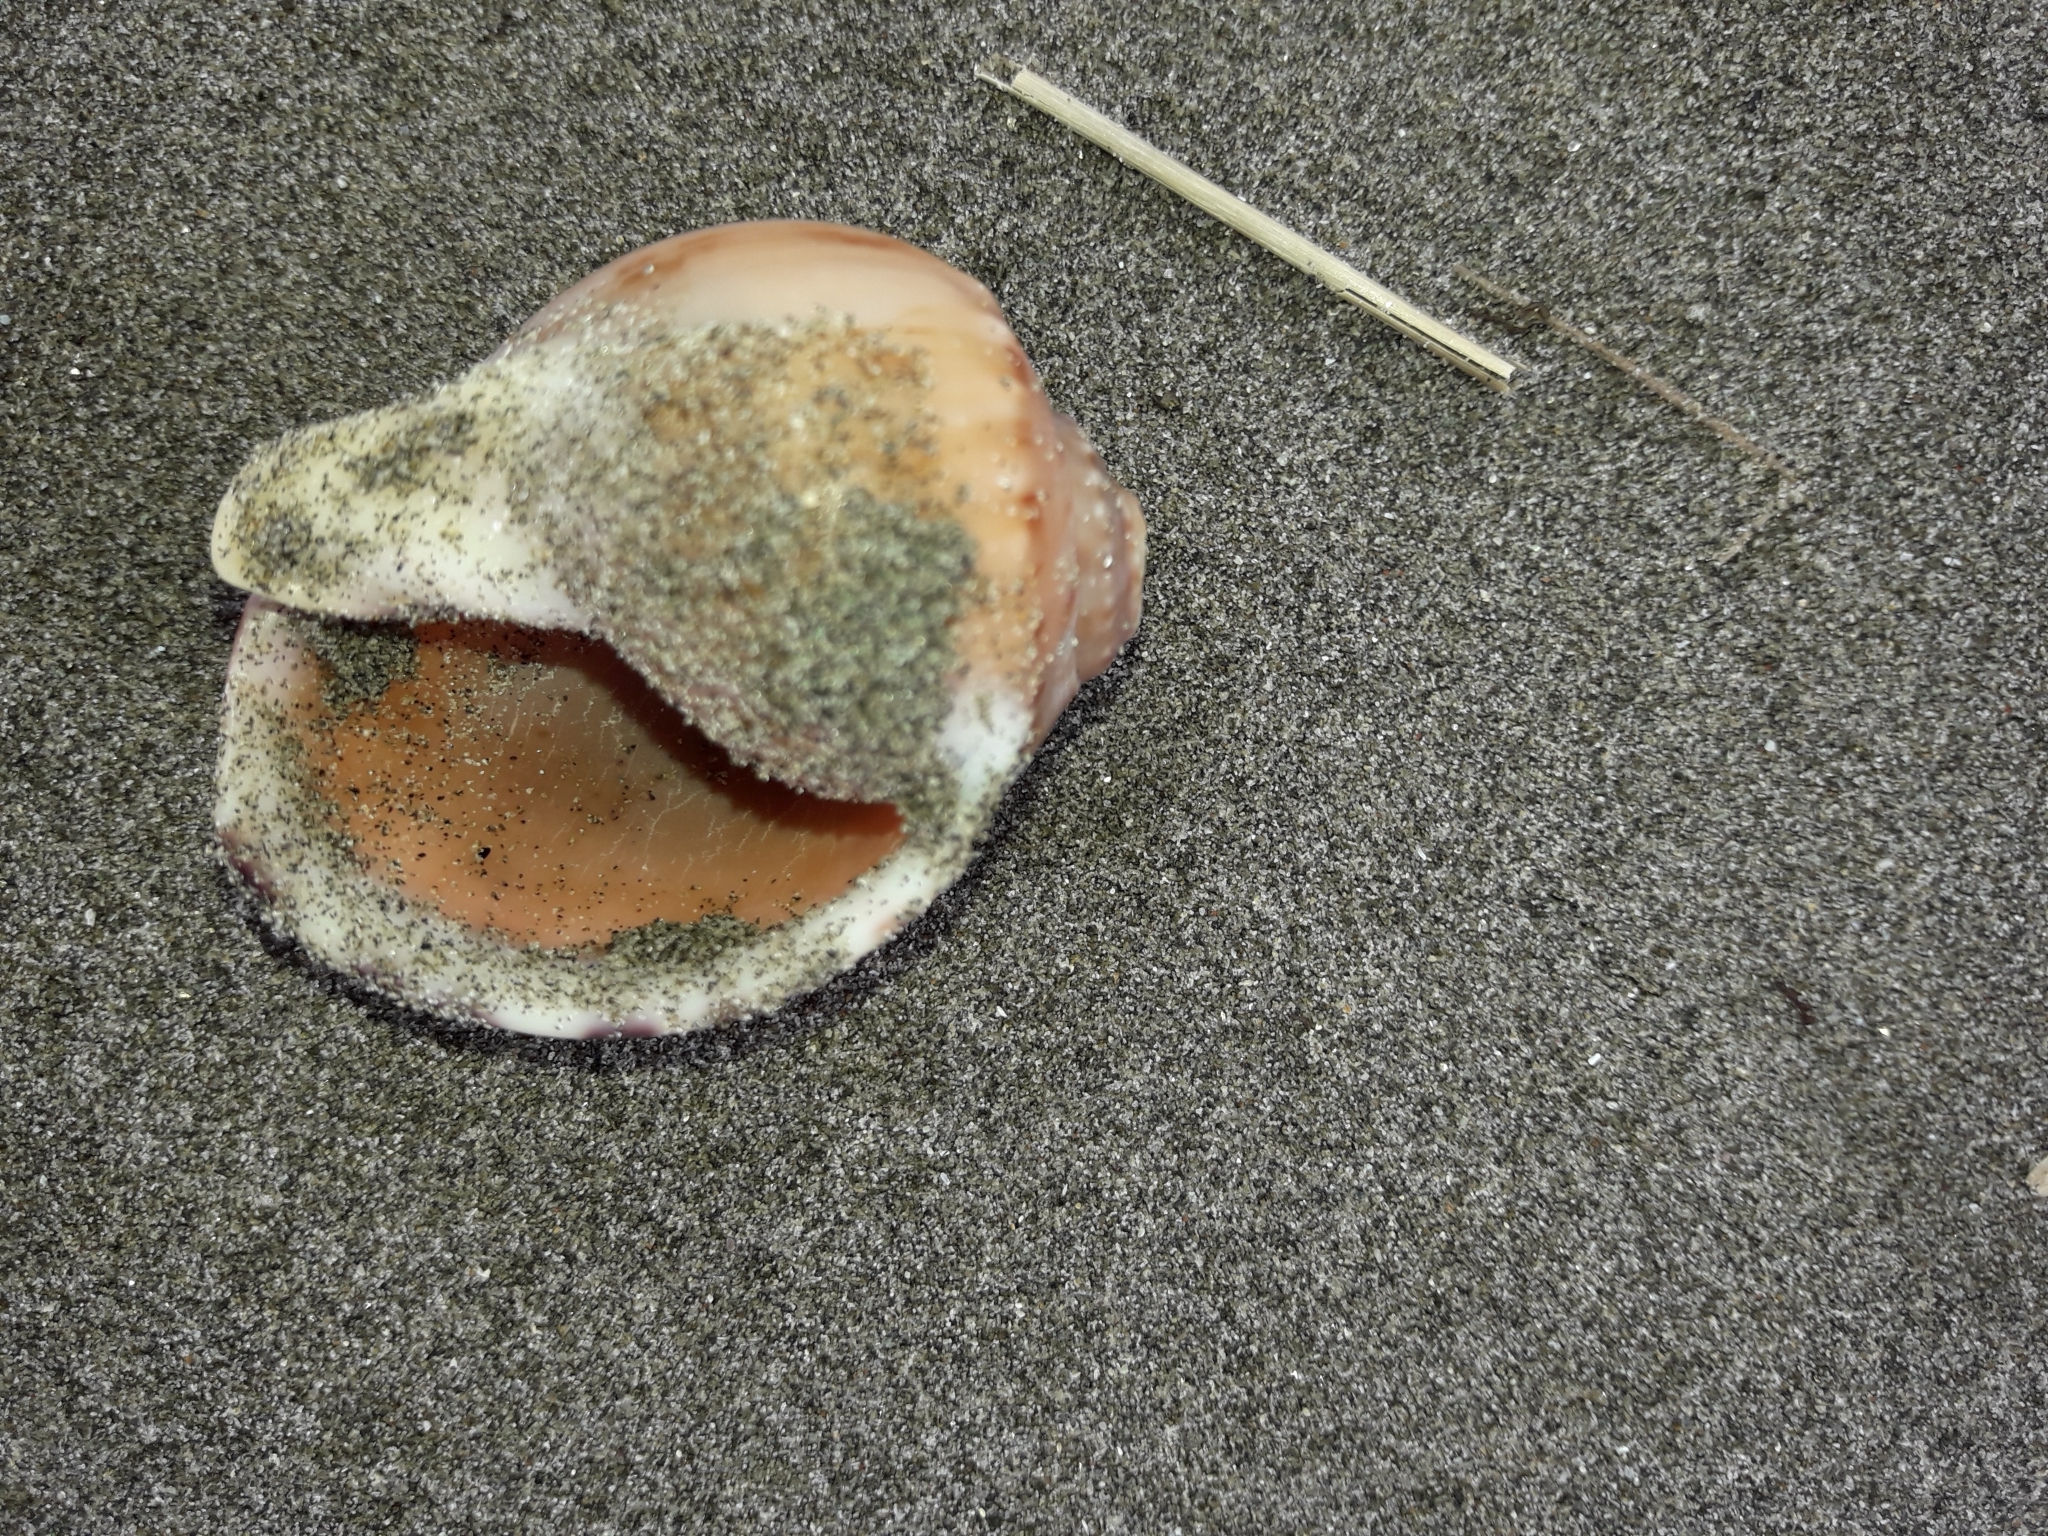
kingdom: Animalia
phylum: Mollusca
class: Gastropoda
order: Littorinimorpha
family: Cassidae
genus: Semicassis
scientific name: Semicassis pyrum
